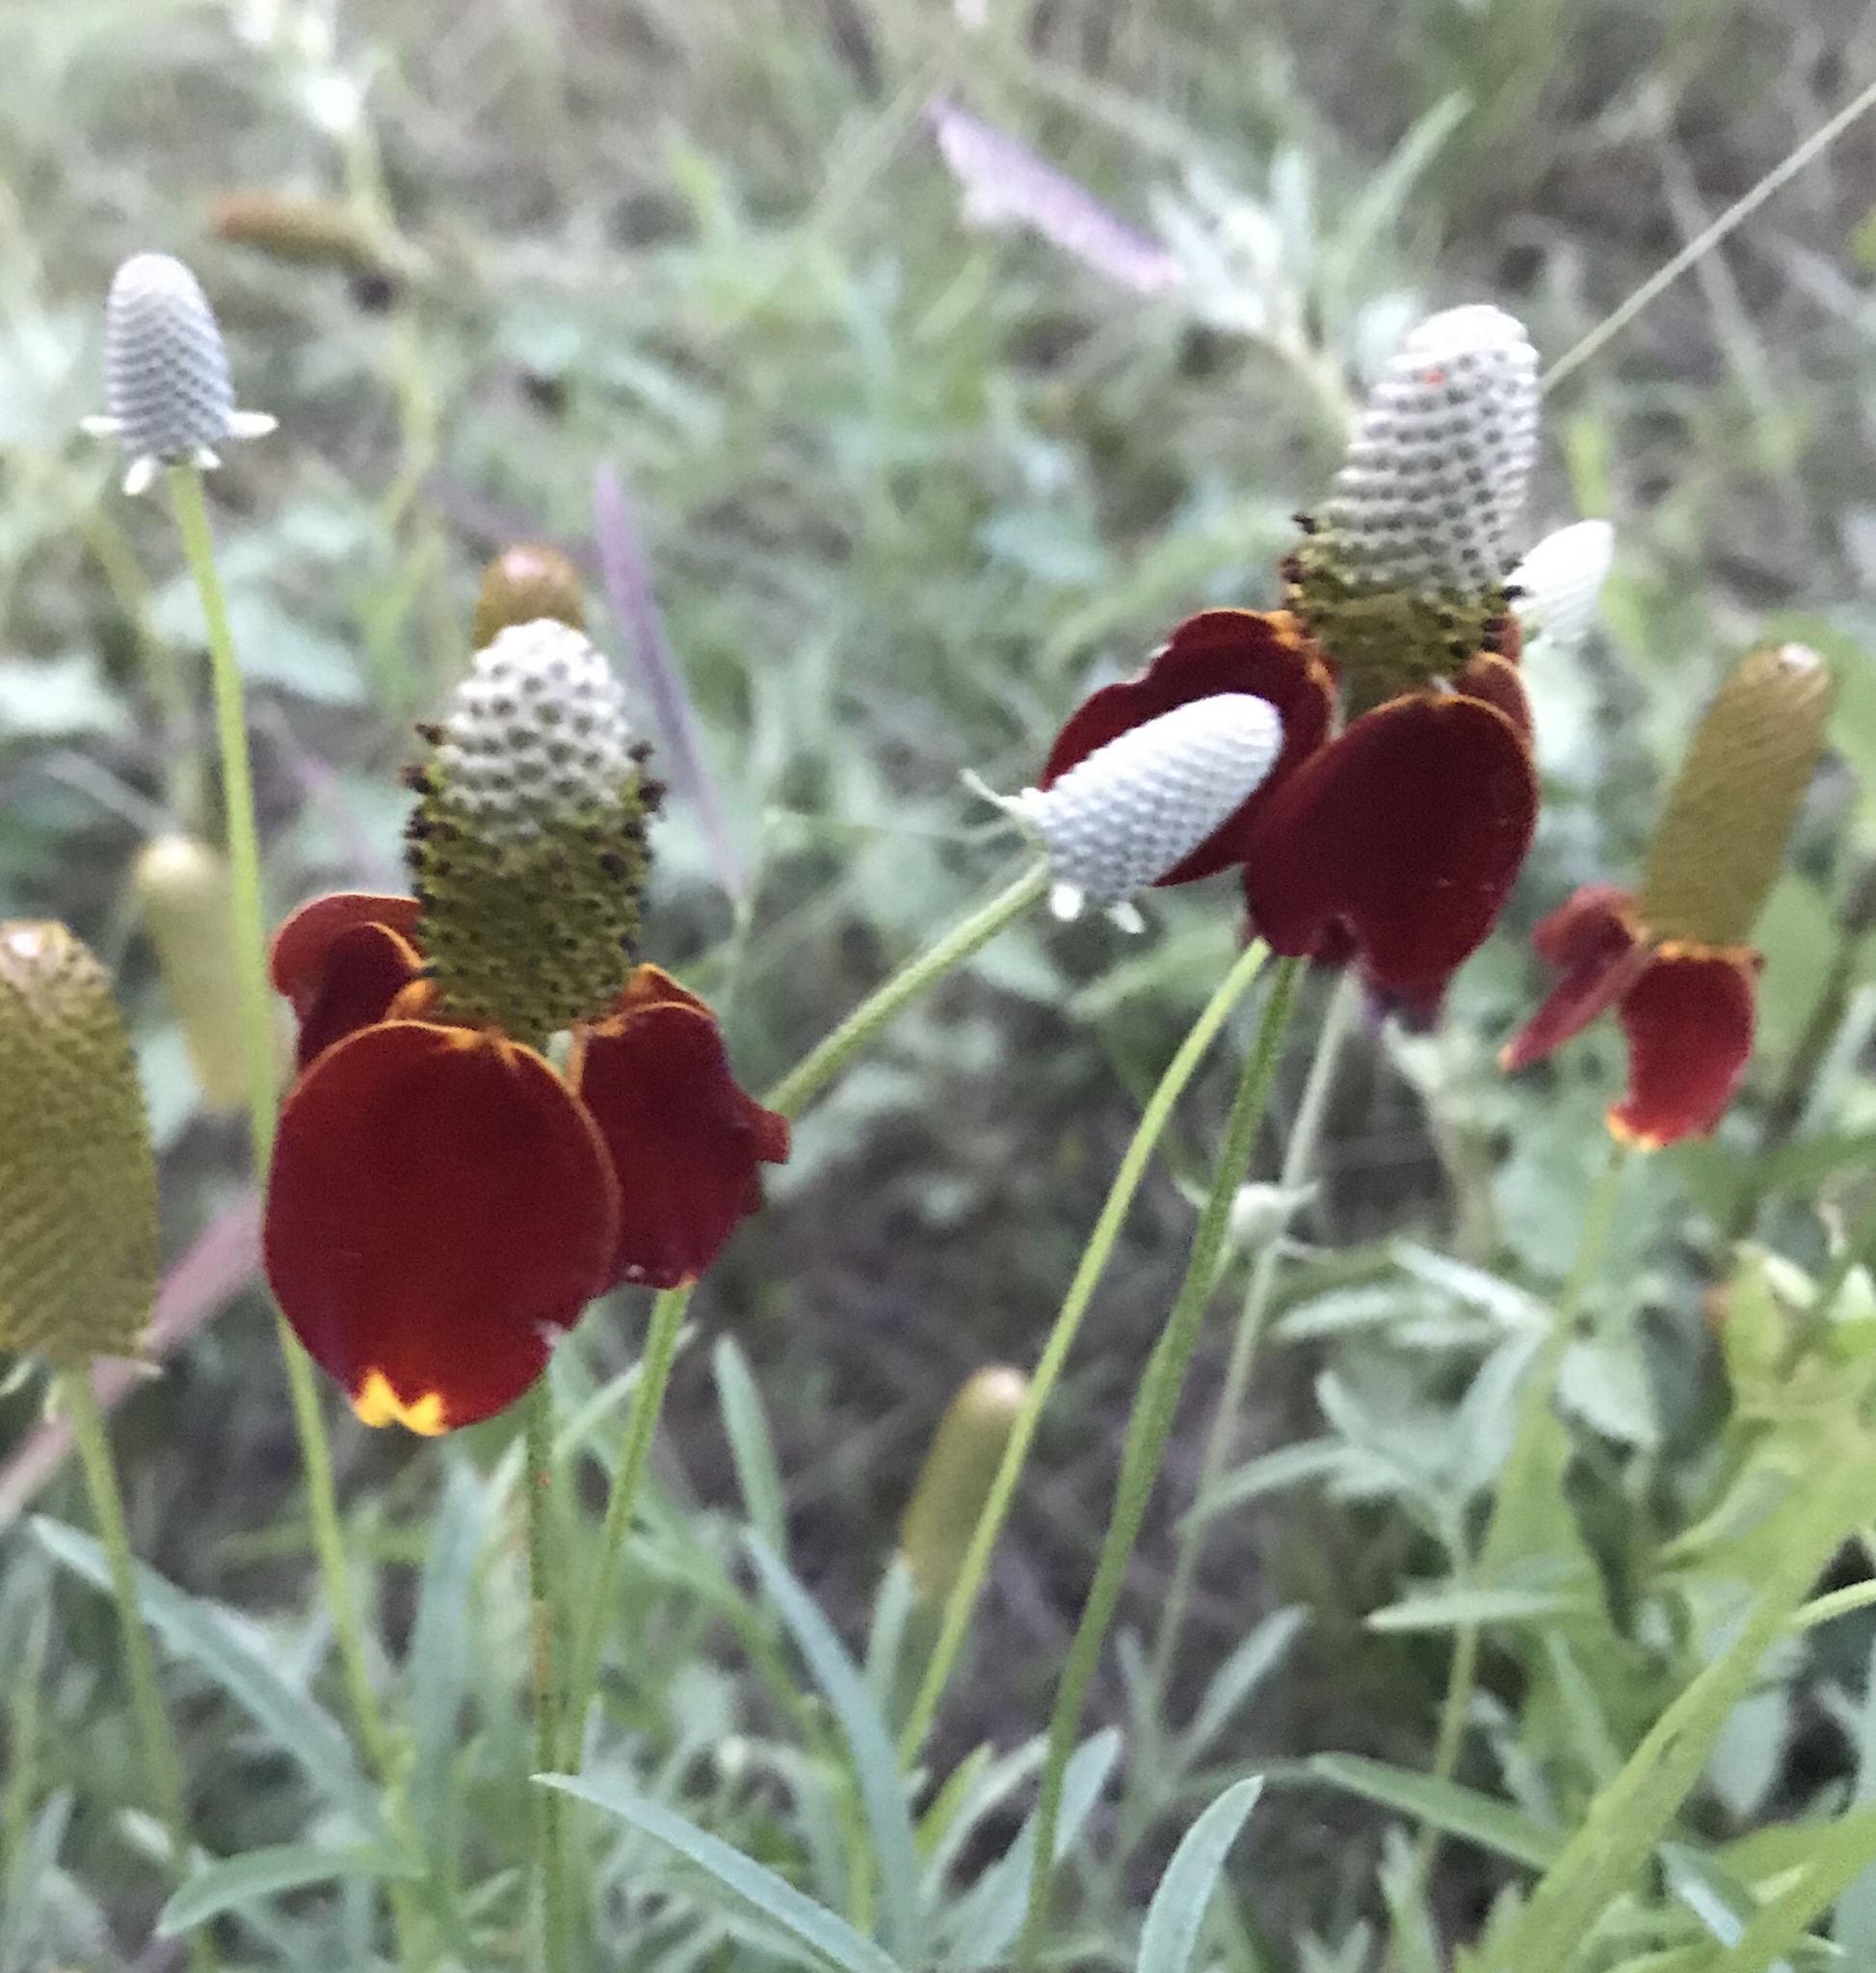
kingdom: Plantae
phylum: Tracheophyta
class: Magnoliopsida
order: Asterales
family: Asteraceae
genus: Ratibida
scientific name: Ratibida columnifera
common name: Prairie coneflower
